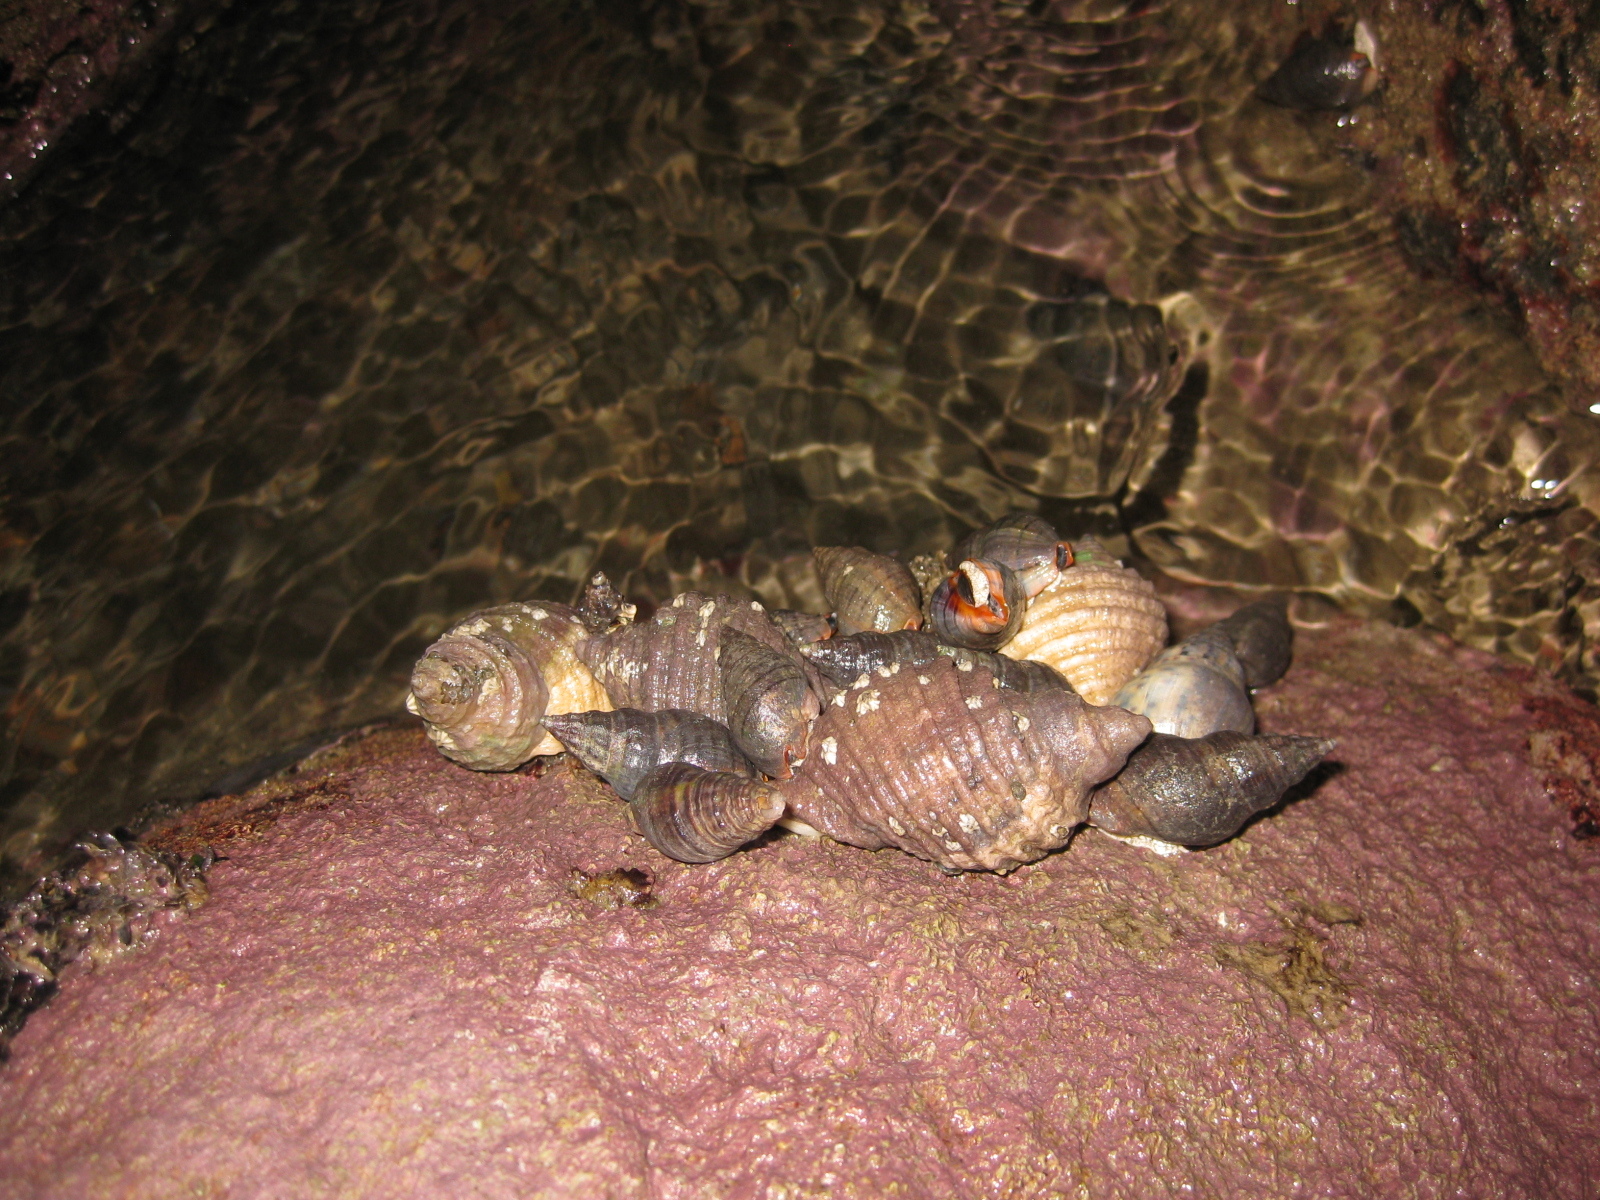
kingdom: Animalia
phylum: Mollusca
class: Gastropoda
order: Neogastropoda
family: Muricidae
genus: Dicathais
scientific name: Dicathais orbita
